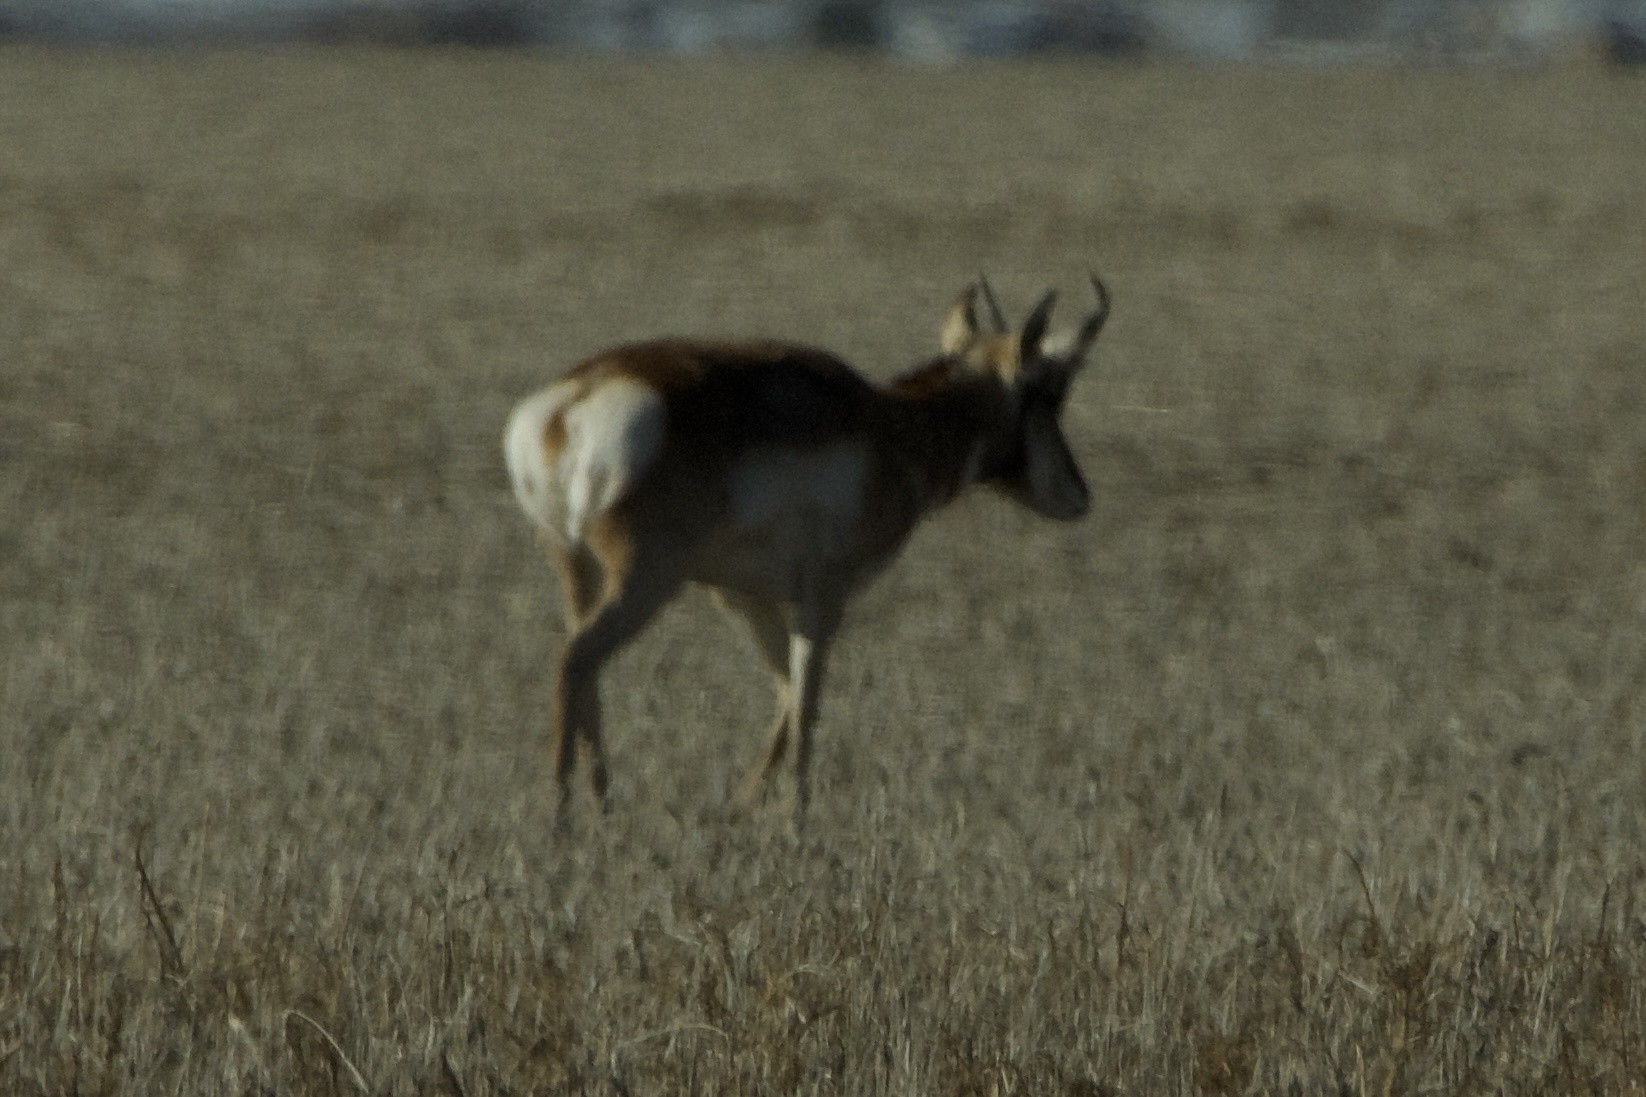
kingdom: Animalia
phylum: Chordata
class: Mammalia
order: Artiodactyla
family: Antilocapridae
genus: Antilocapra
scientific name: Antilocapra americana
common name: Pronghorn
